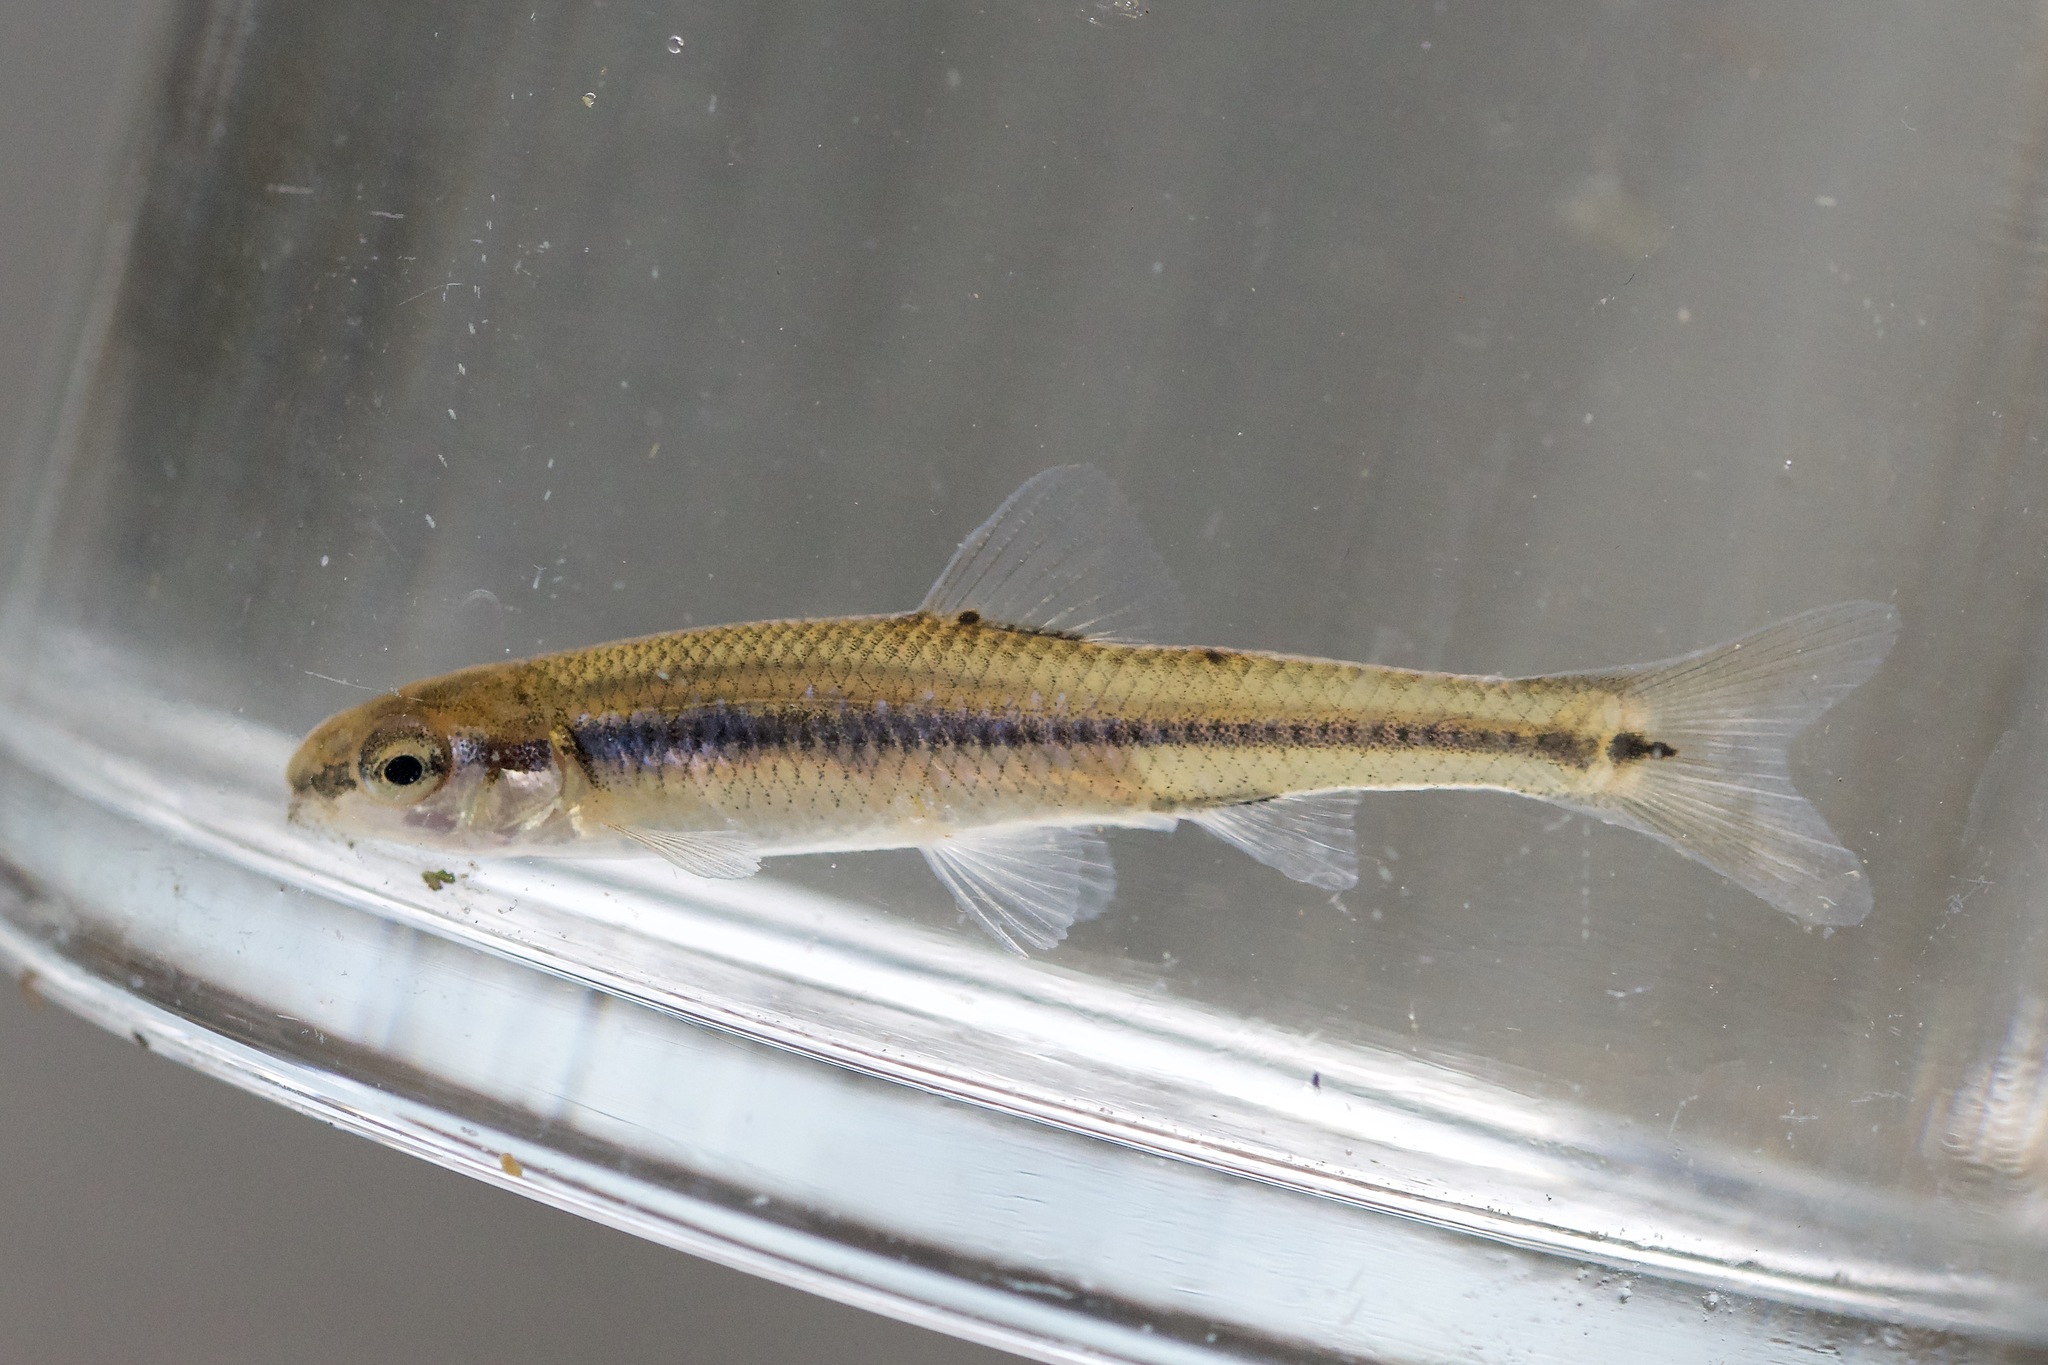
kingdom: Animalia
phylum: Chordata
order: Cypriniformes
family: Cyprinidae
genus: Pimephales
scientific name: Pimephales notatus
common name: Bluntnose minnow
